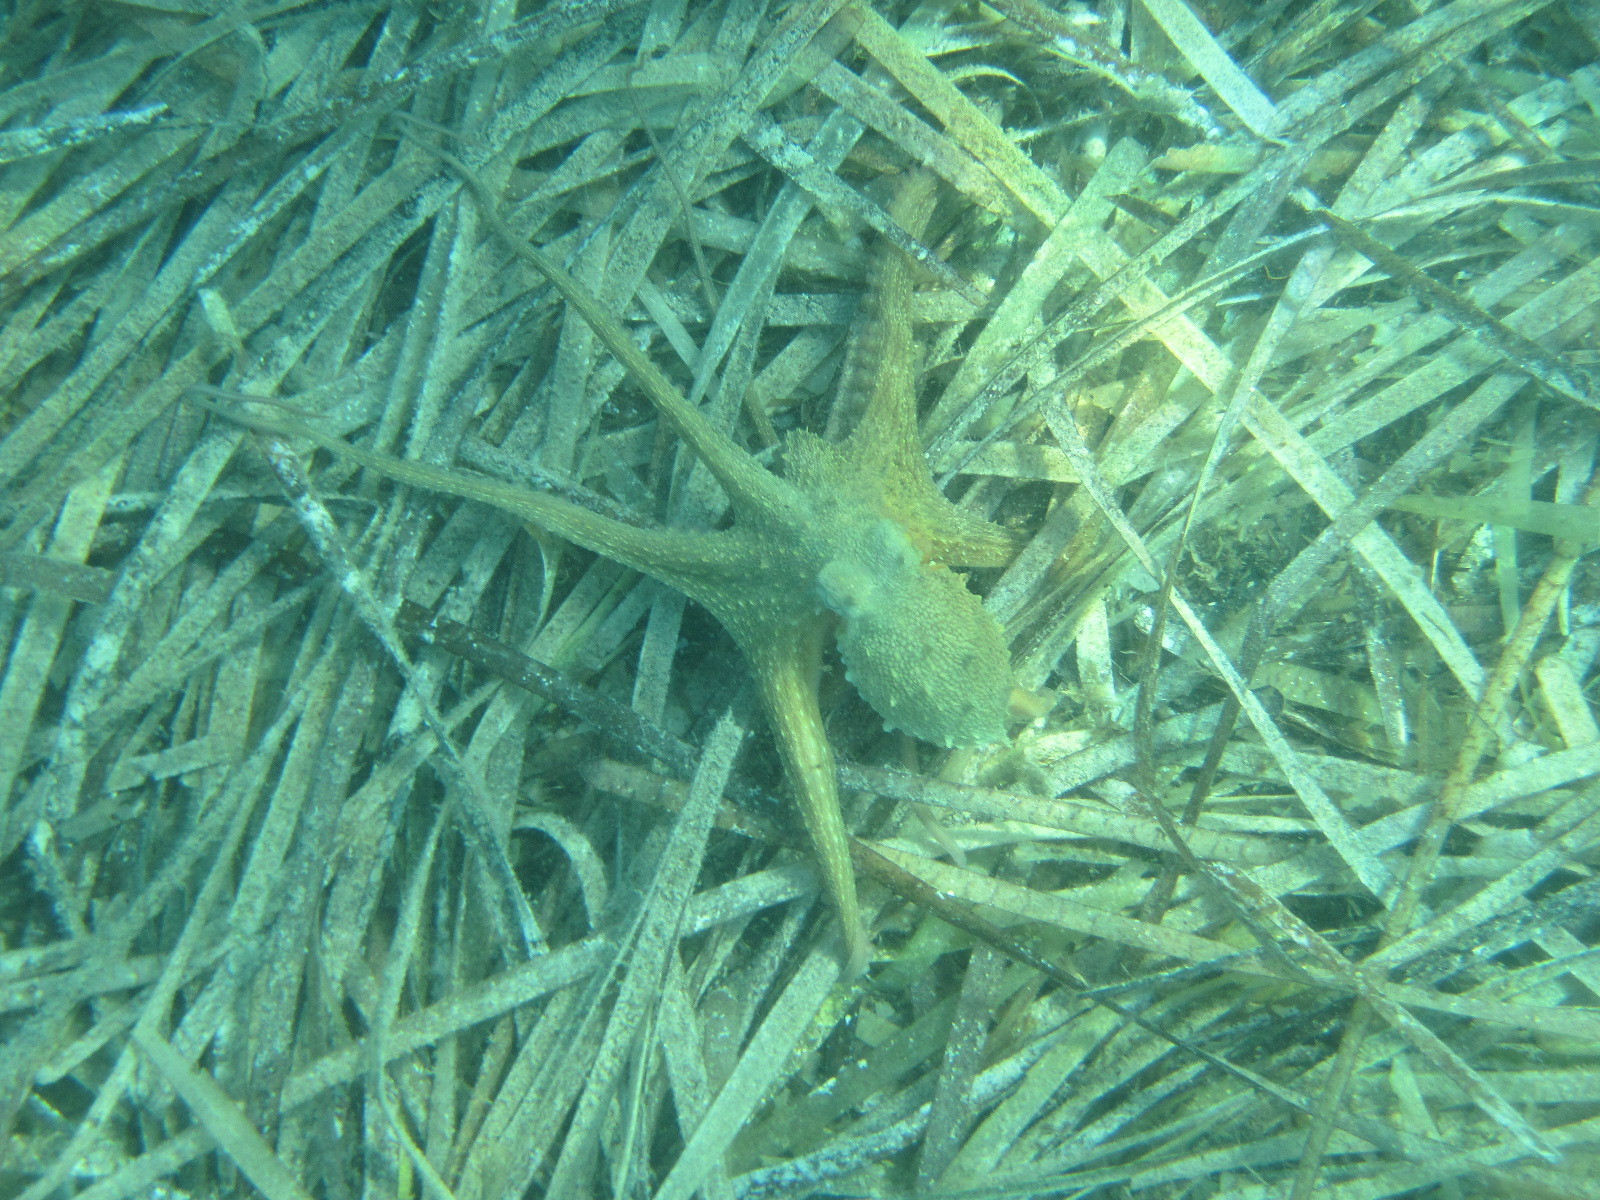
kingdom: Animalia
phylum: Mollusca
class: Cephalopoda
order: Octopoda
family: Octopodidae
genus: Octopus
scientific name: Octopus vulgaris
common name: Common octopus
